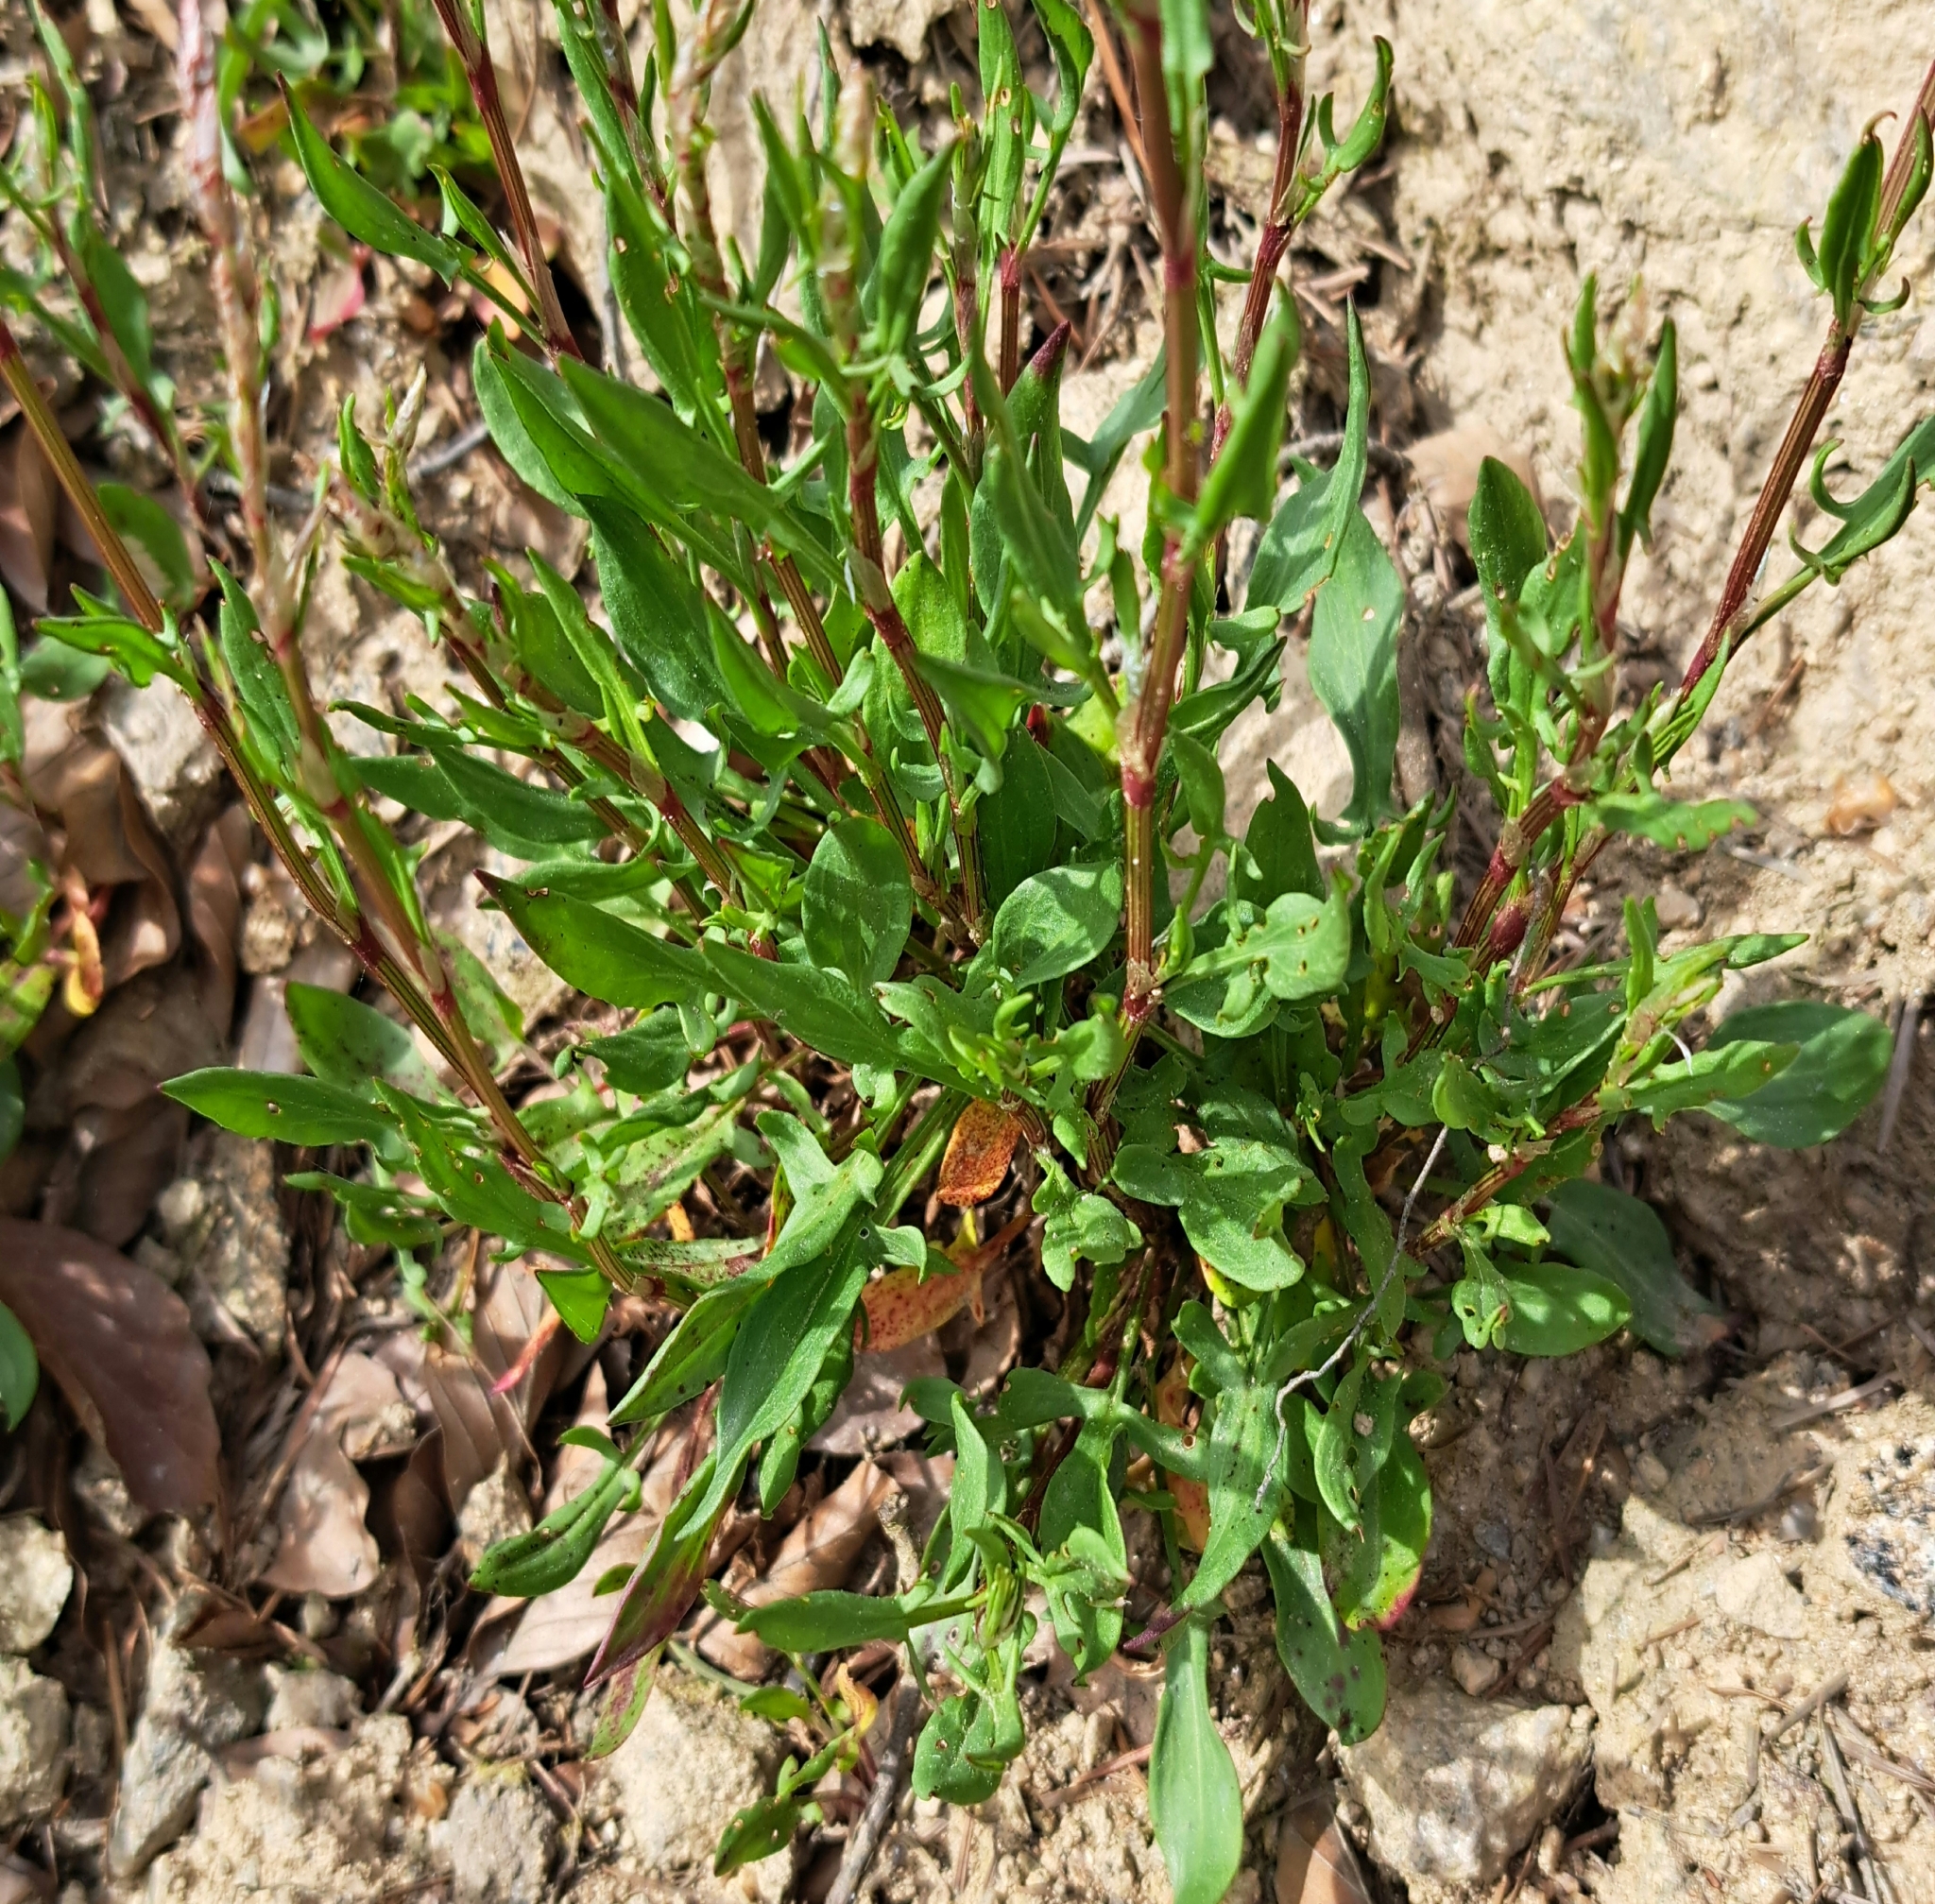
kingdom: Plantae
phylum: Tracheophyta
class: Magnoliopsida
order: Caryophyllales
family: Polygonaceae
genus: Rumex
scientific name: Rumex acetosella
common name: Common sheep sorrel
